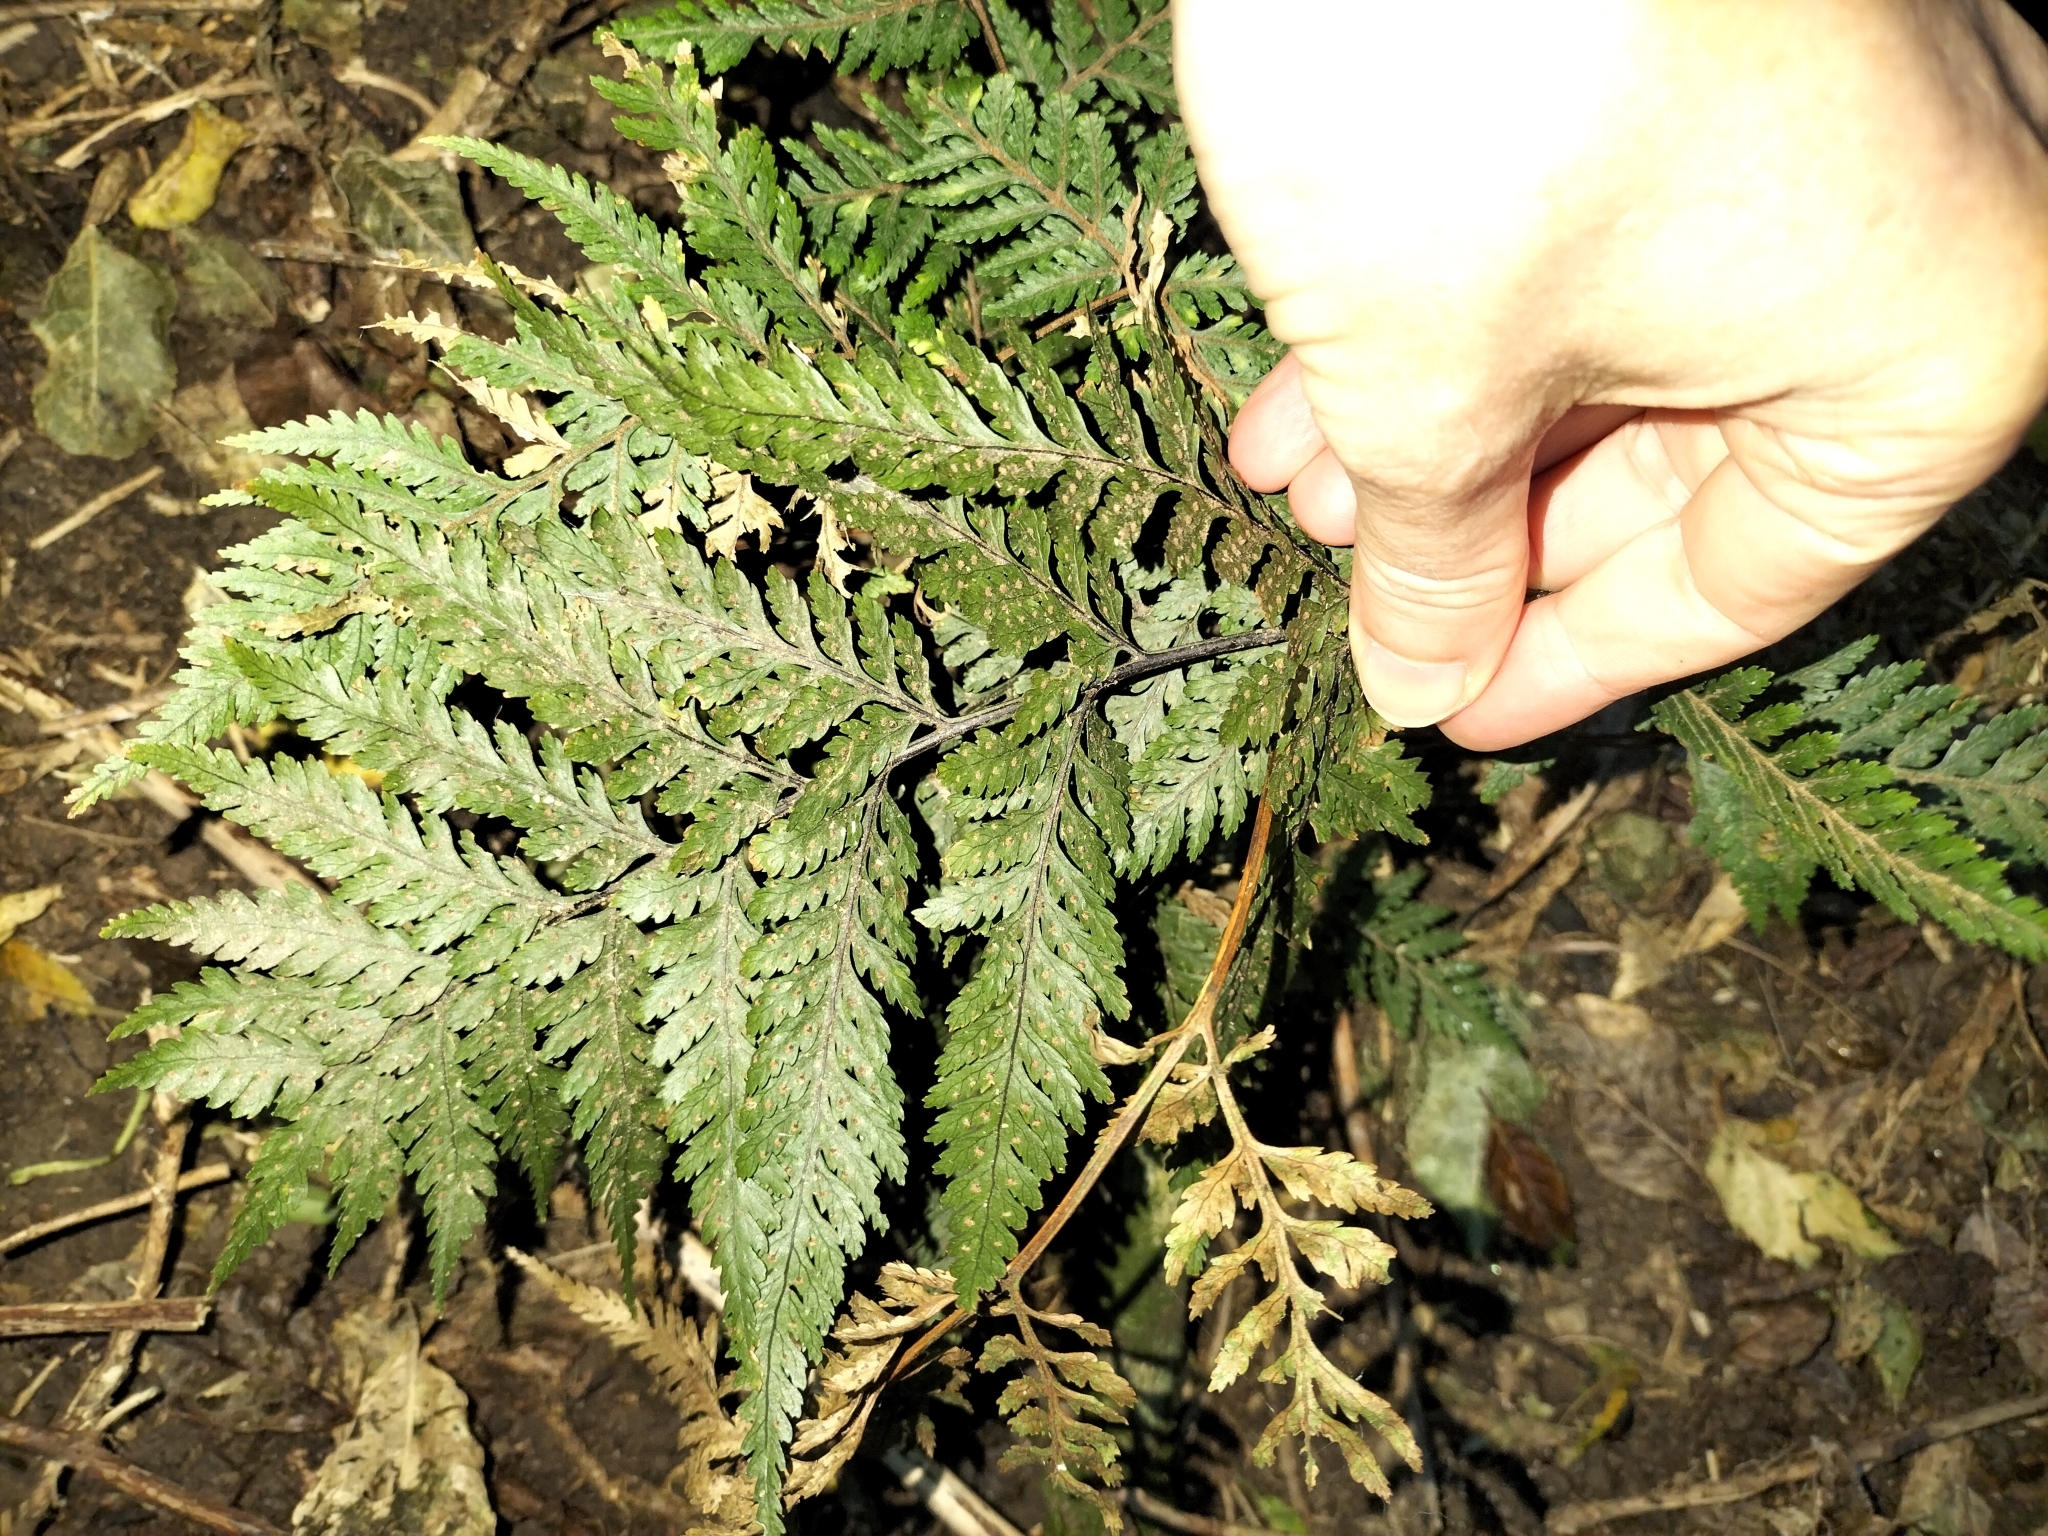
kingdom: Plantae
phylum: Tracheophyta
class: Polypodiopsida
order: Polypodiales
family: Dryopteridaceae
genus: Parapolystichum
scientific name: Parapolystichum glabellum
